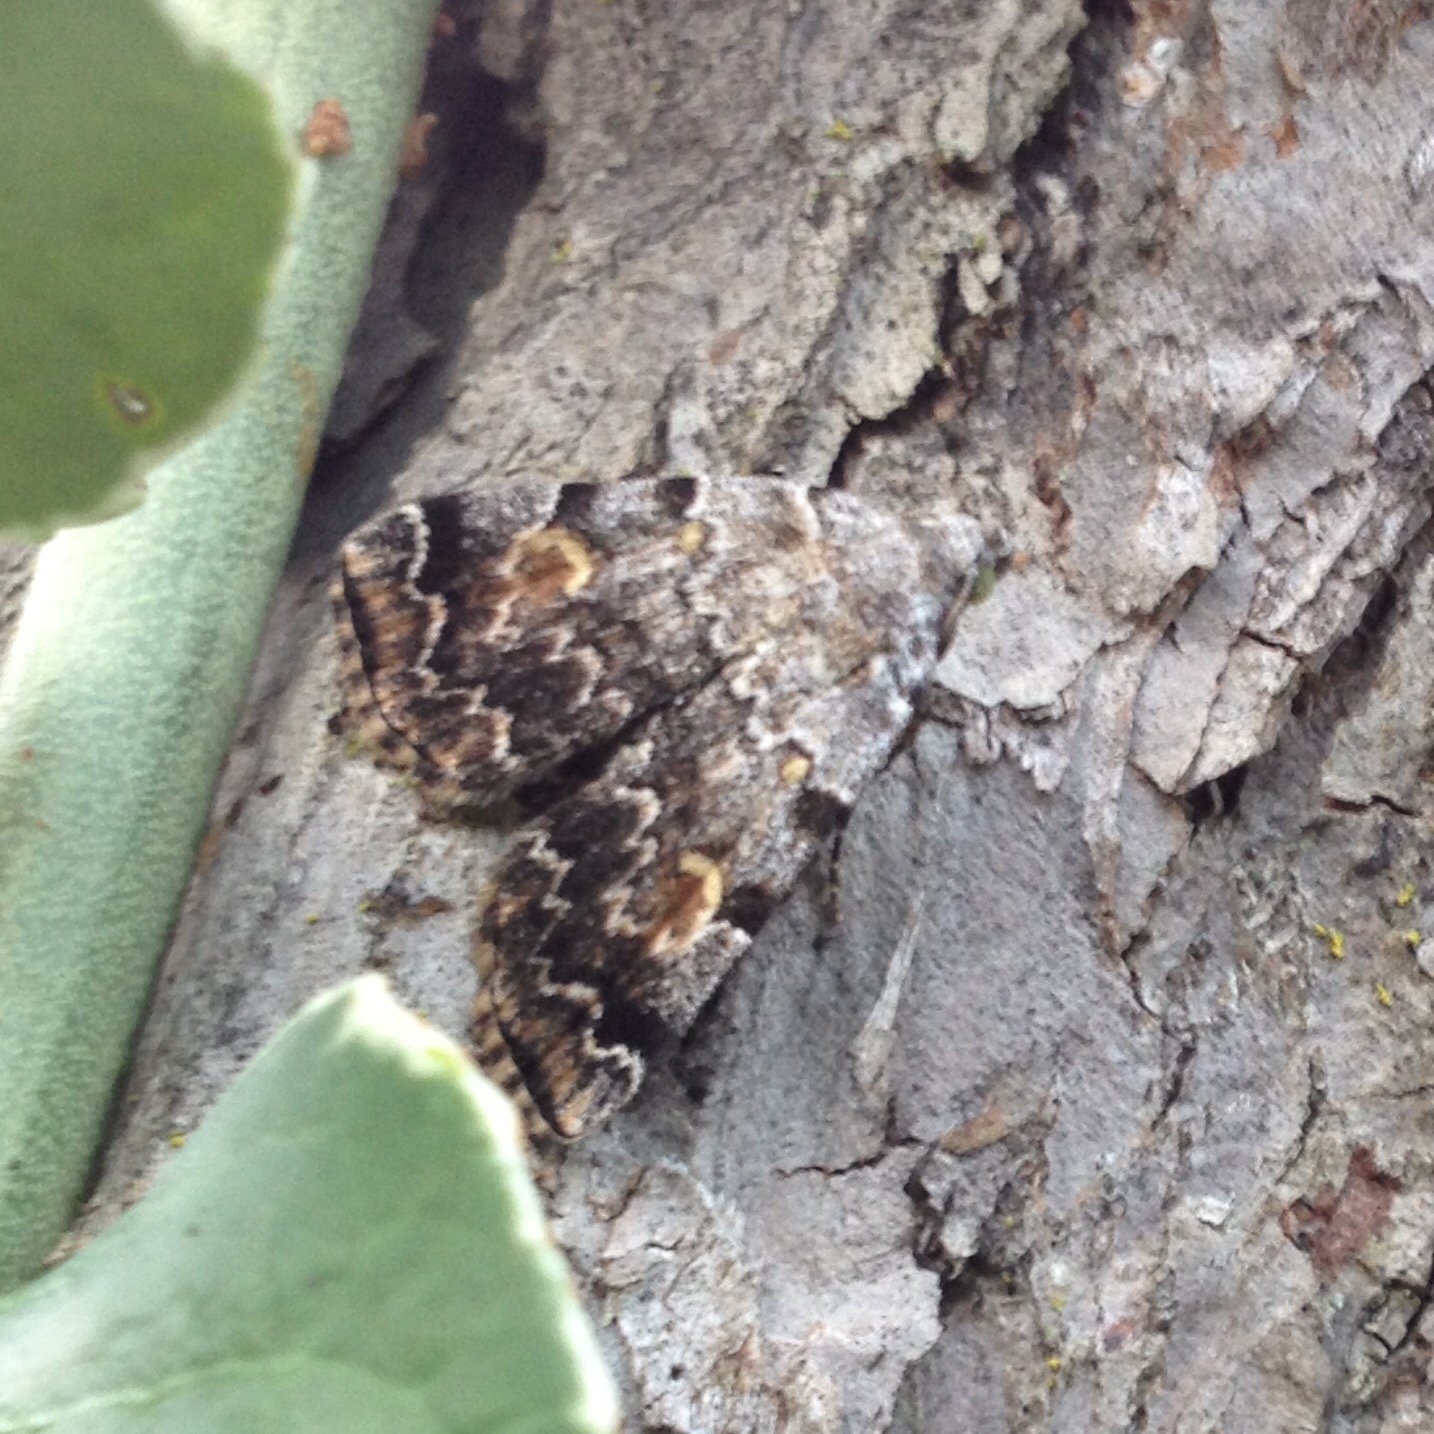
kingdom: Animalia
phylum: Arthropoda
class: Insecta
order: Lepidoptera
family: Erebidae
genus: Idia
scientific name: Idia americalis
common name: American idia moth
